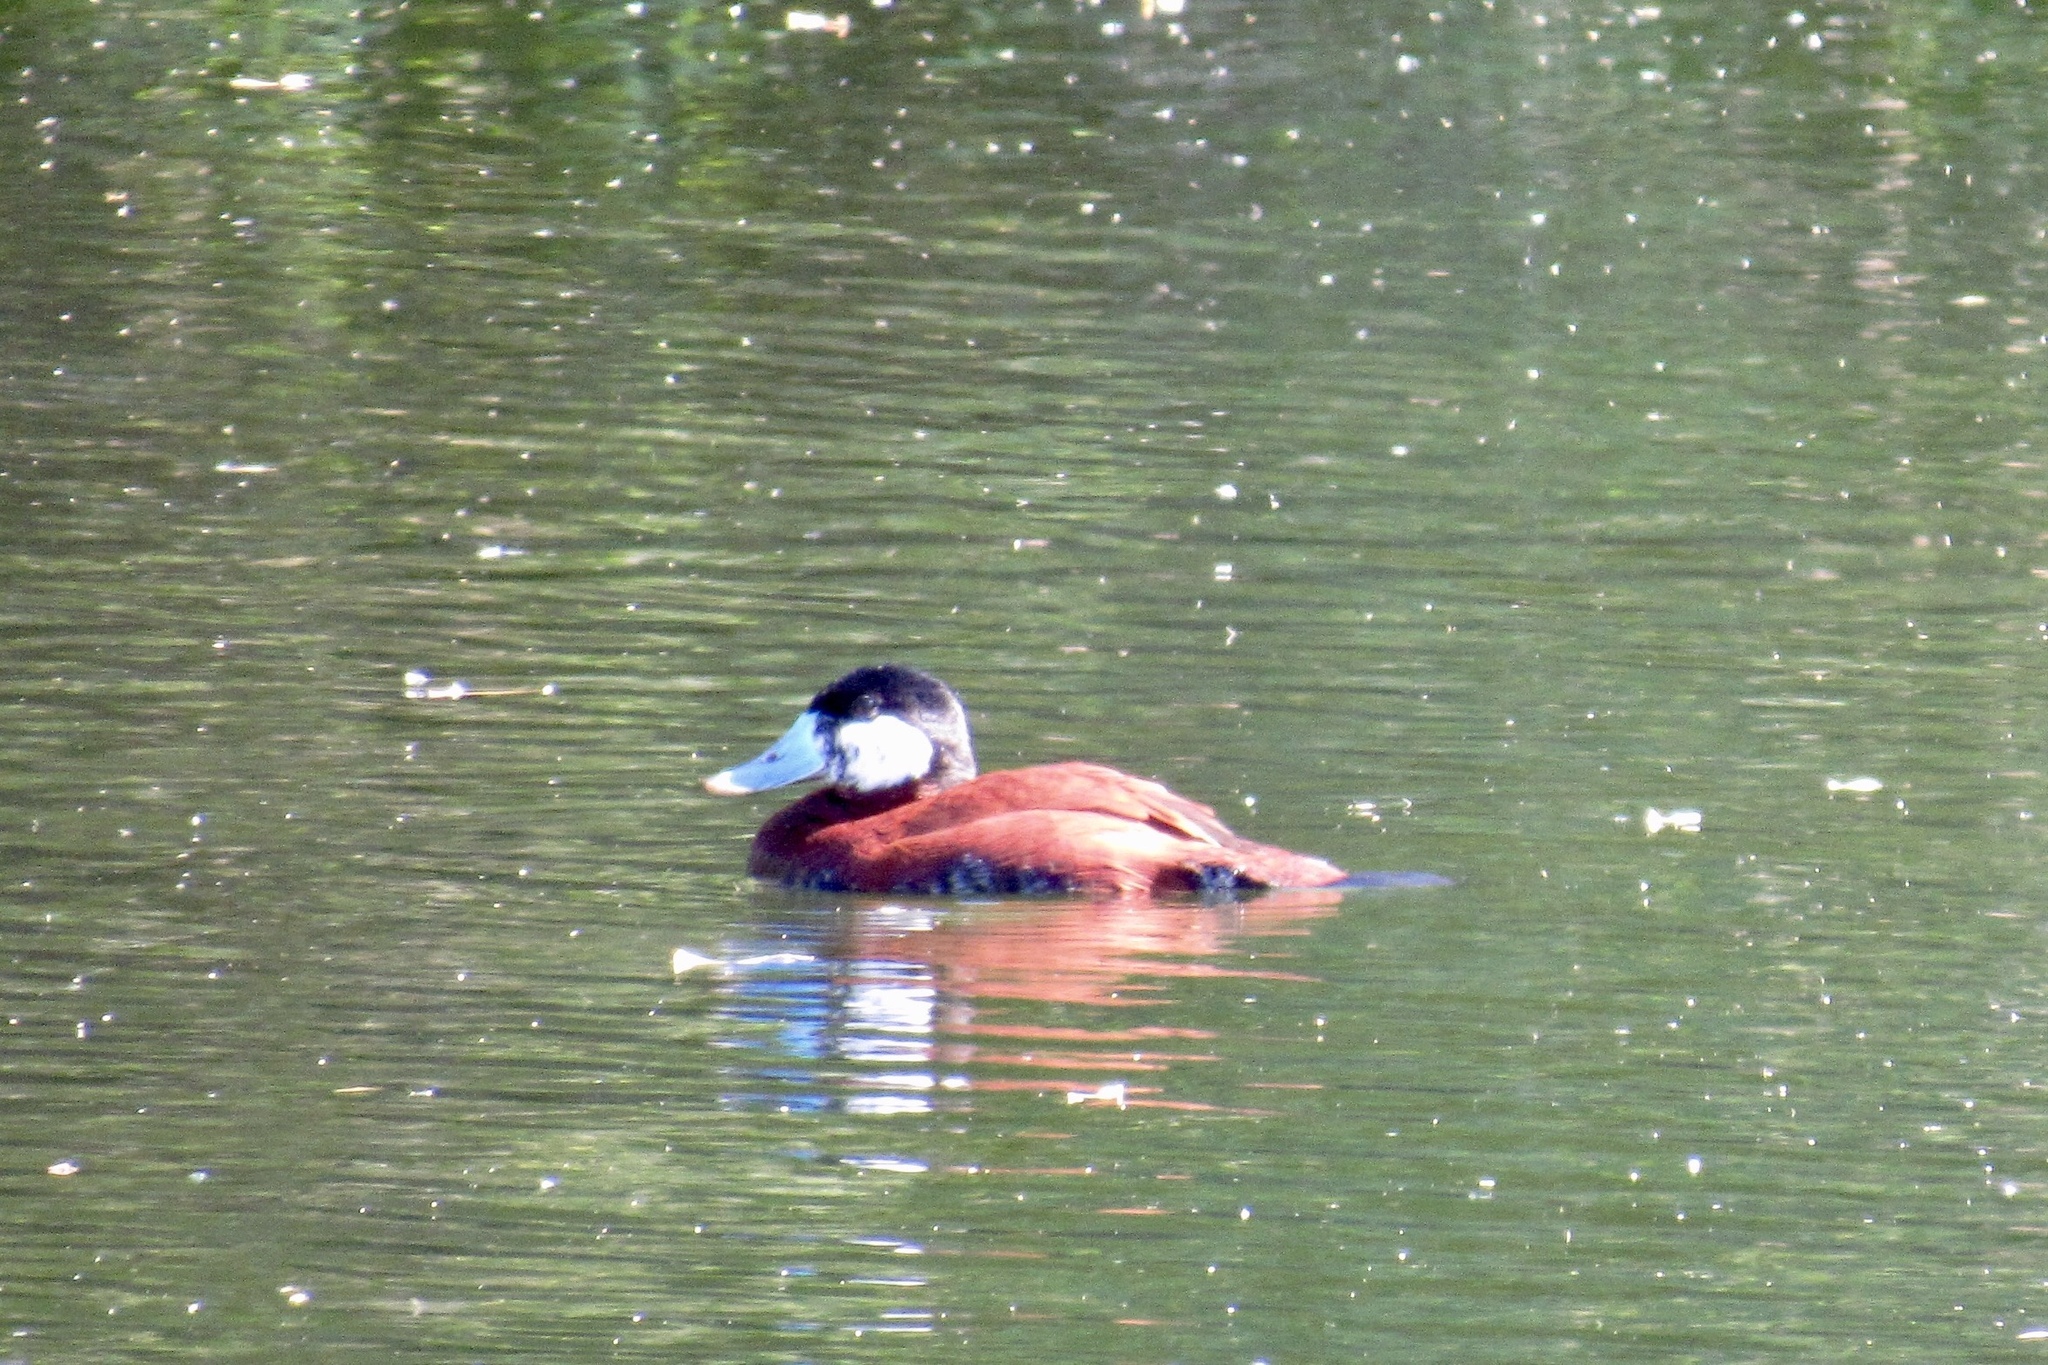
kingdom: Animalia
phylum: Chordata
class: Aves
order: Anseriformes
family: Anatidae
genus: Oxyura
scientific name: Oxyura jamaicensis
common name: Ruddy duck
